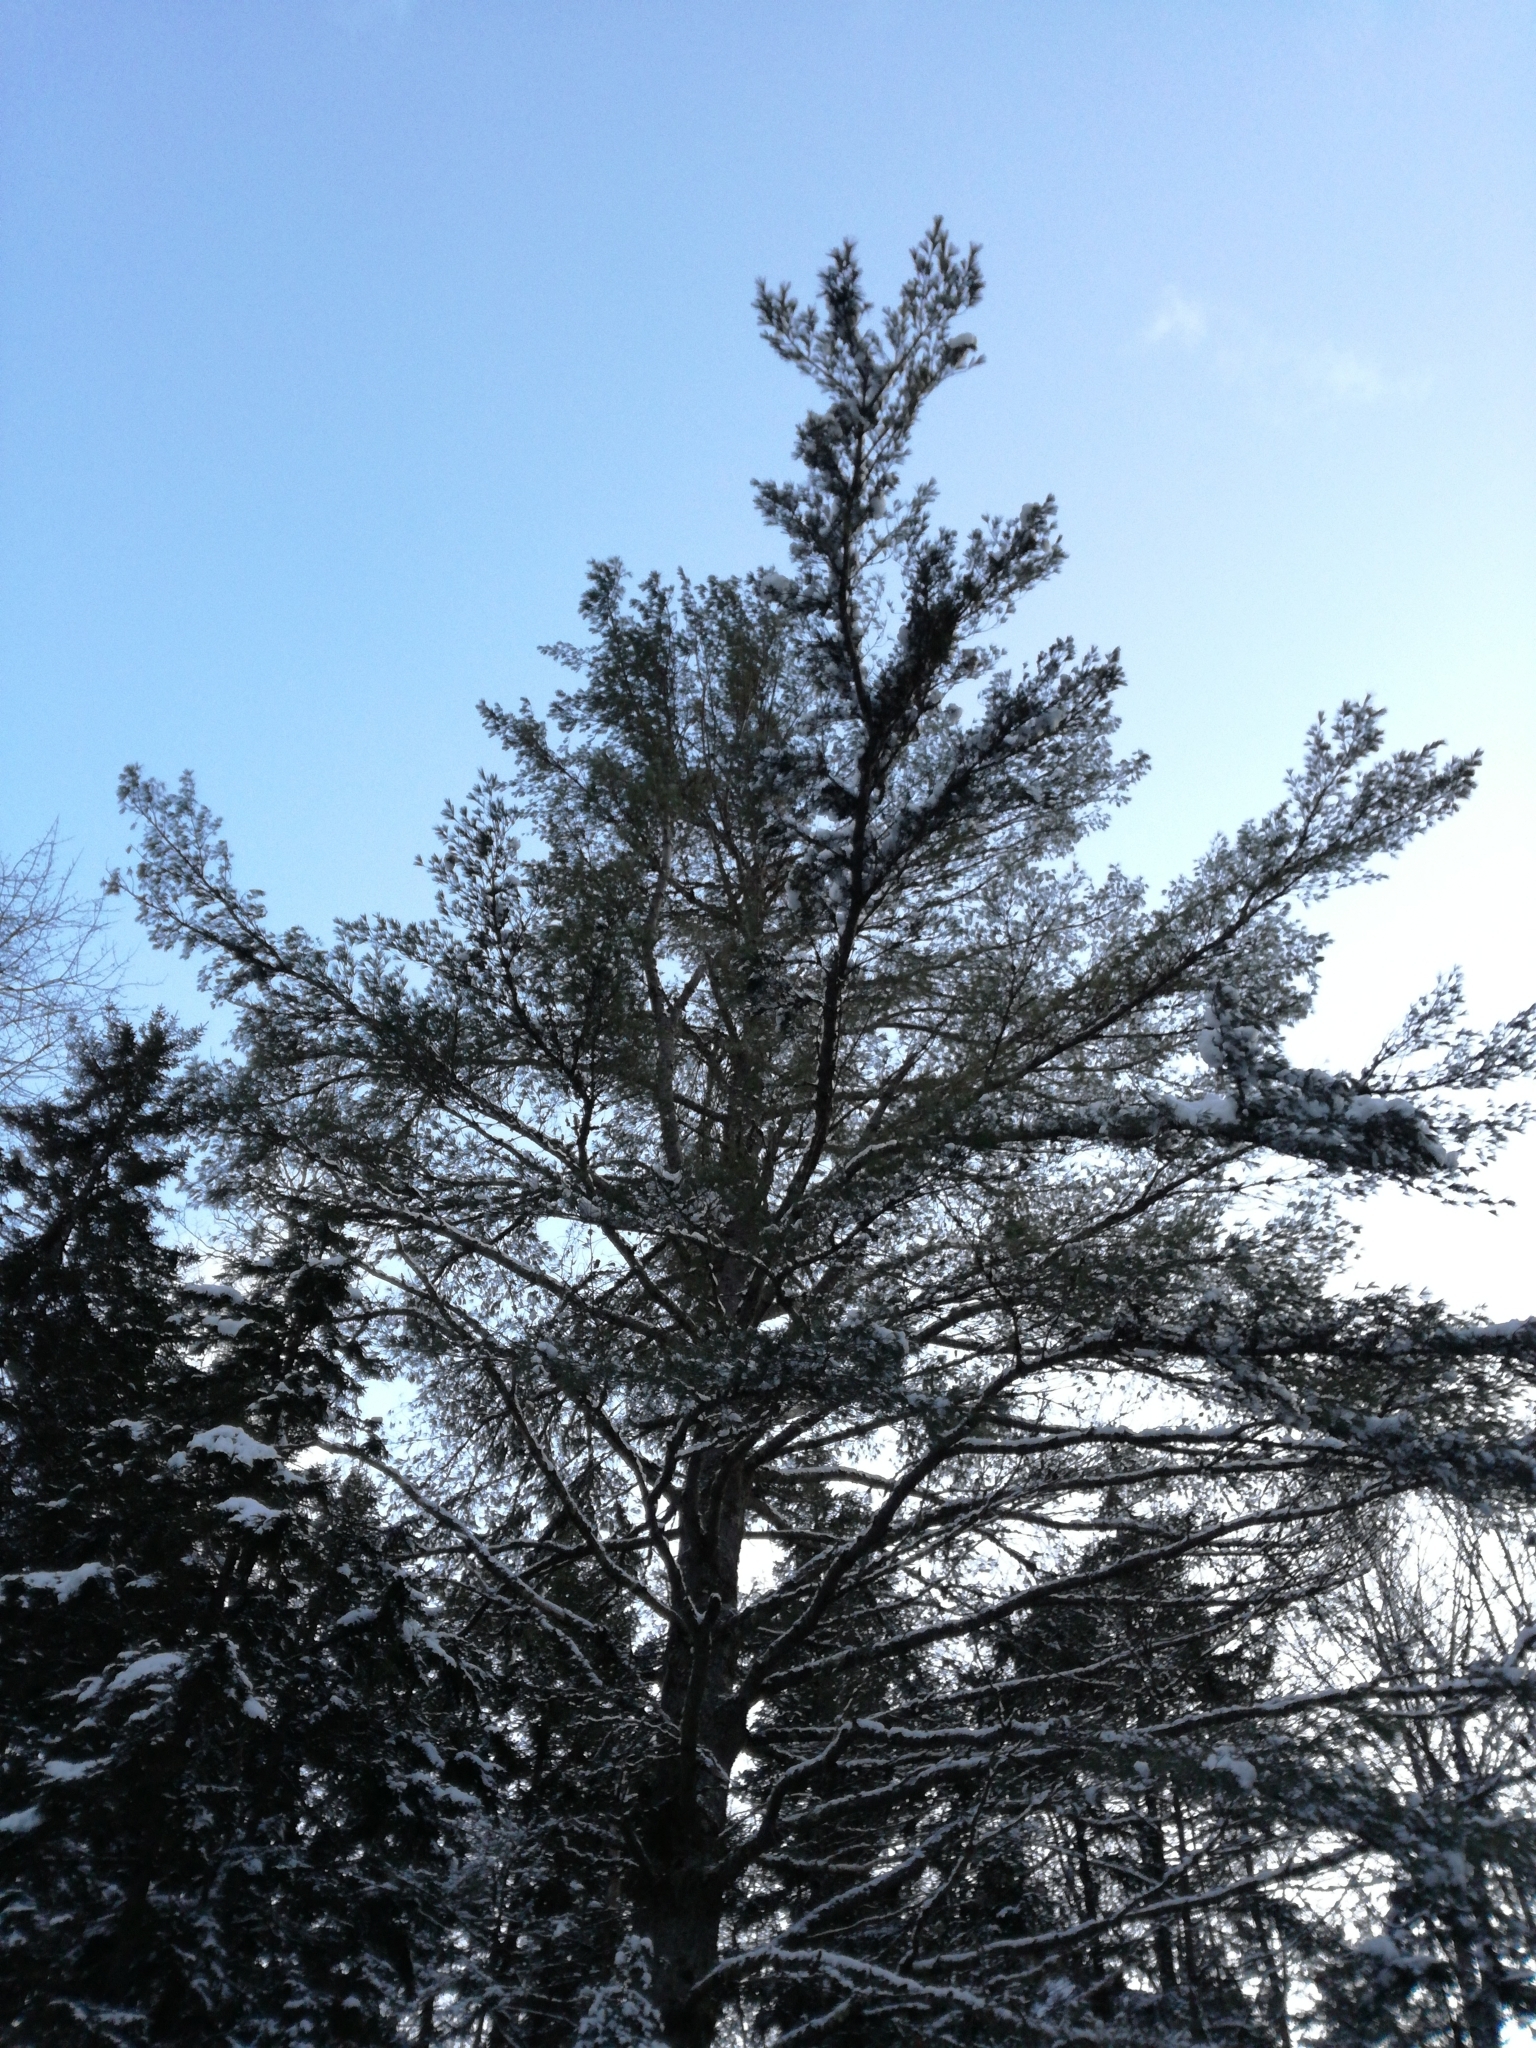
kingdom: Plantae
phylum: Tracheophyta
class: Pinopsida
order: Pinales
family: Pinaceae
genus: Pinus
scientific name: Pinus strobus
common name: Weymouth pine
